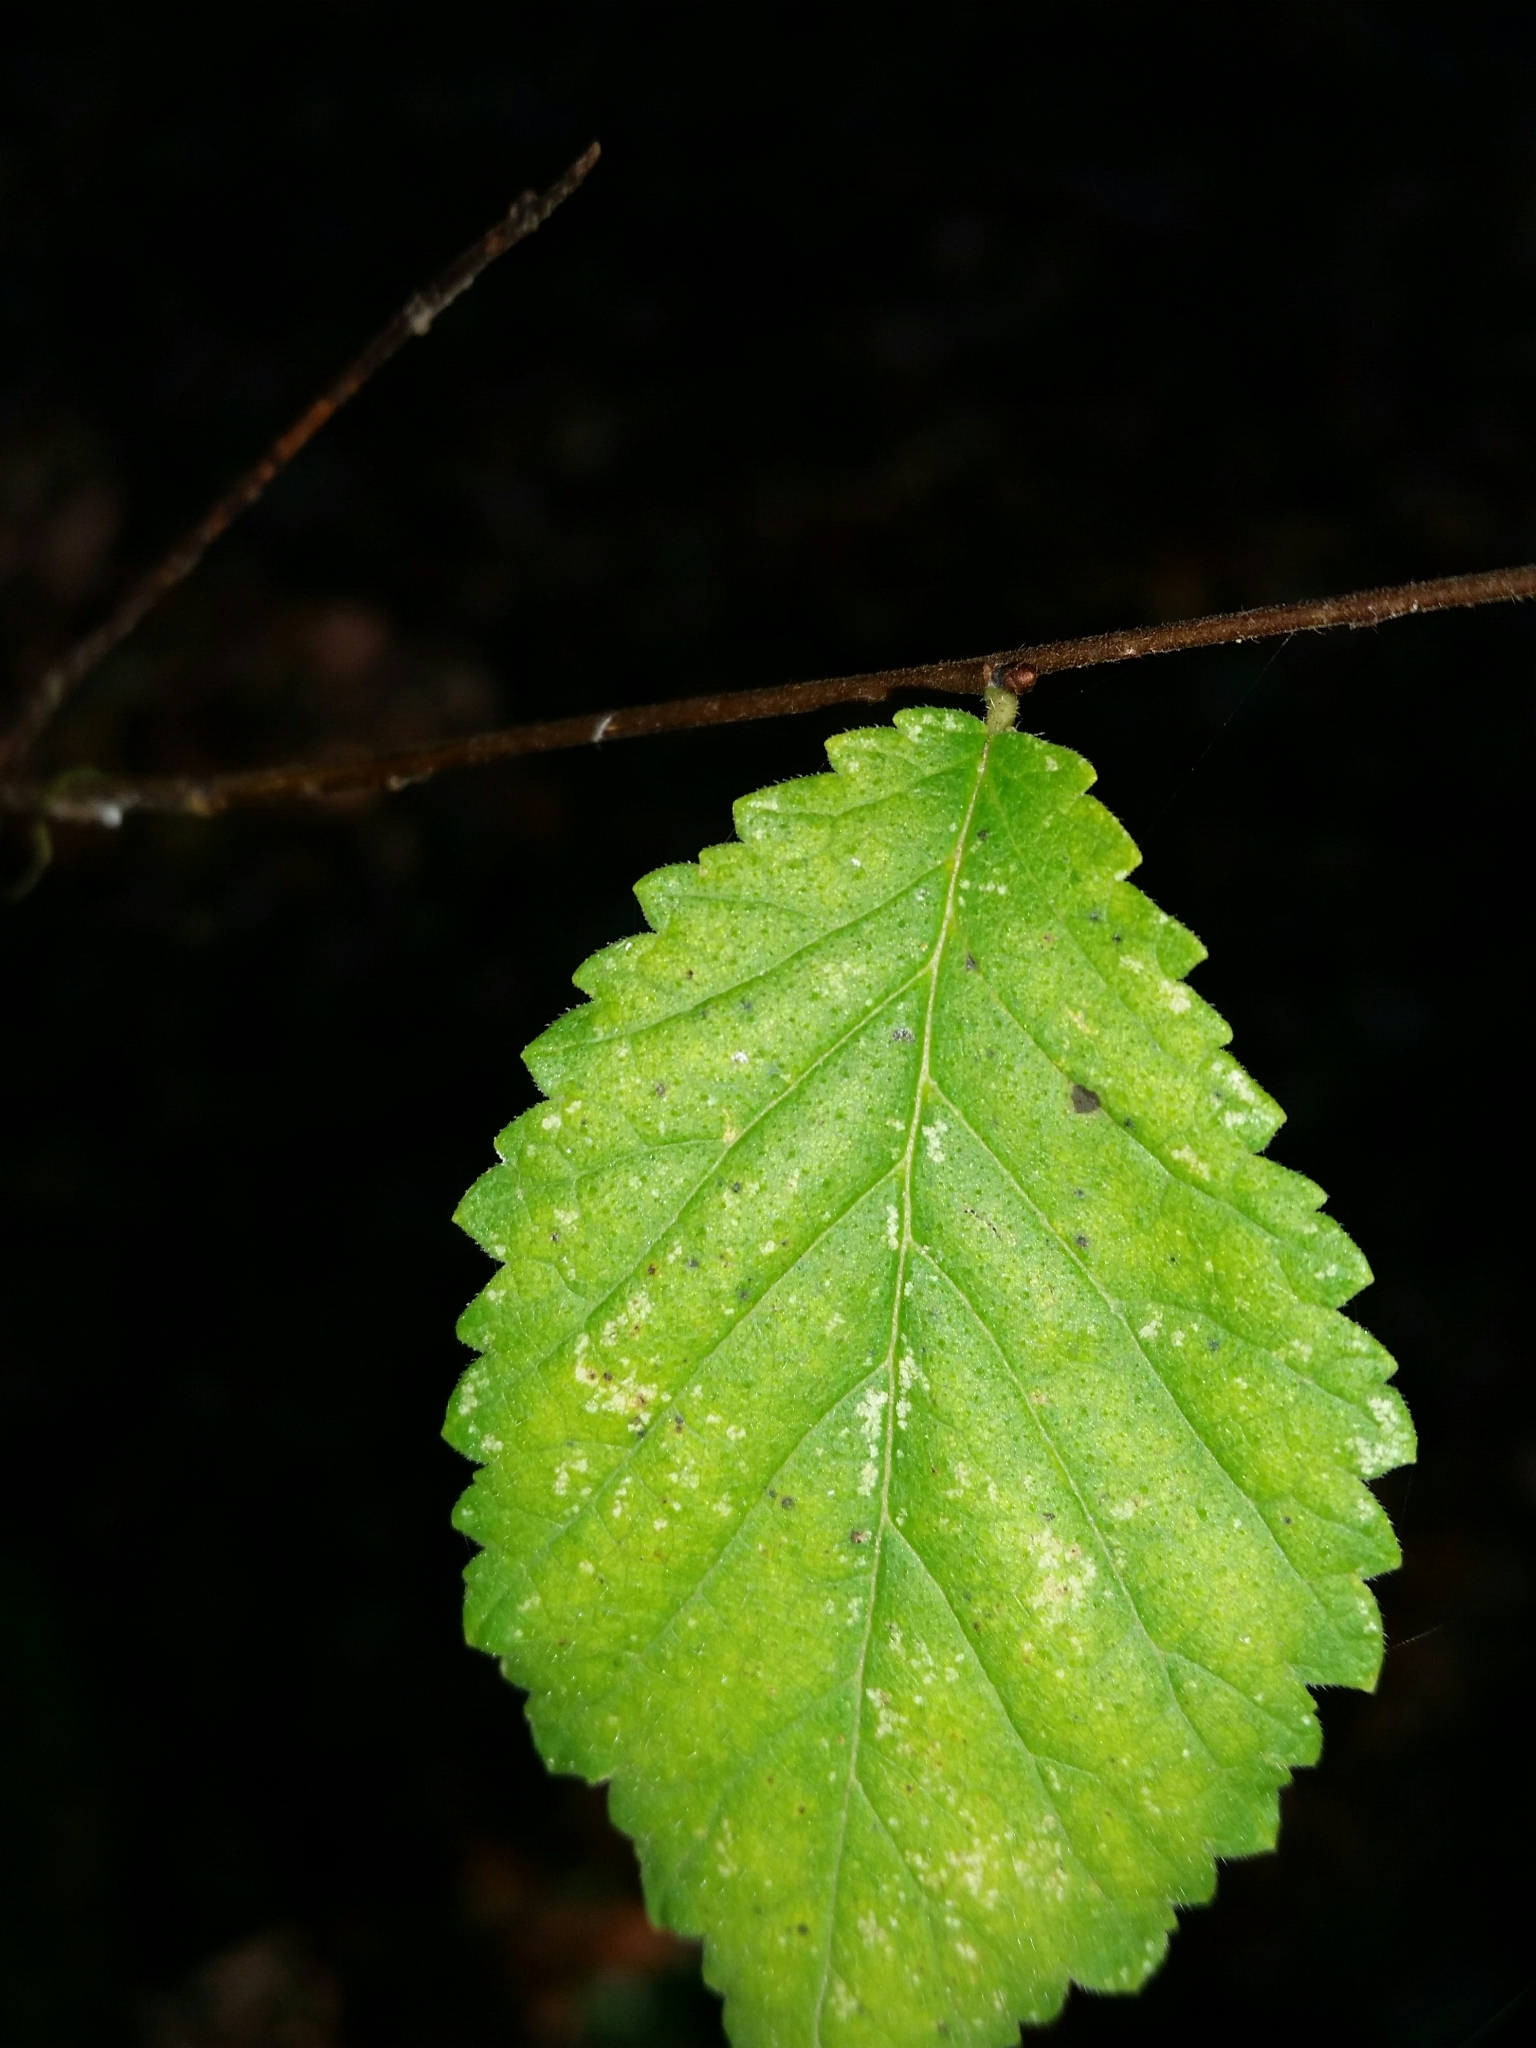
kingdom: Plantae
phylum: Tracheophyta
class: Magnoliopsida
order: Rosales
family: Ulmaceae
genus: Ulmus
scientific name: Ulmus minor
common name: Small-leaved elm
